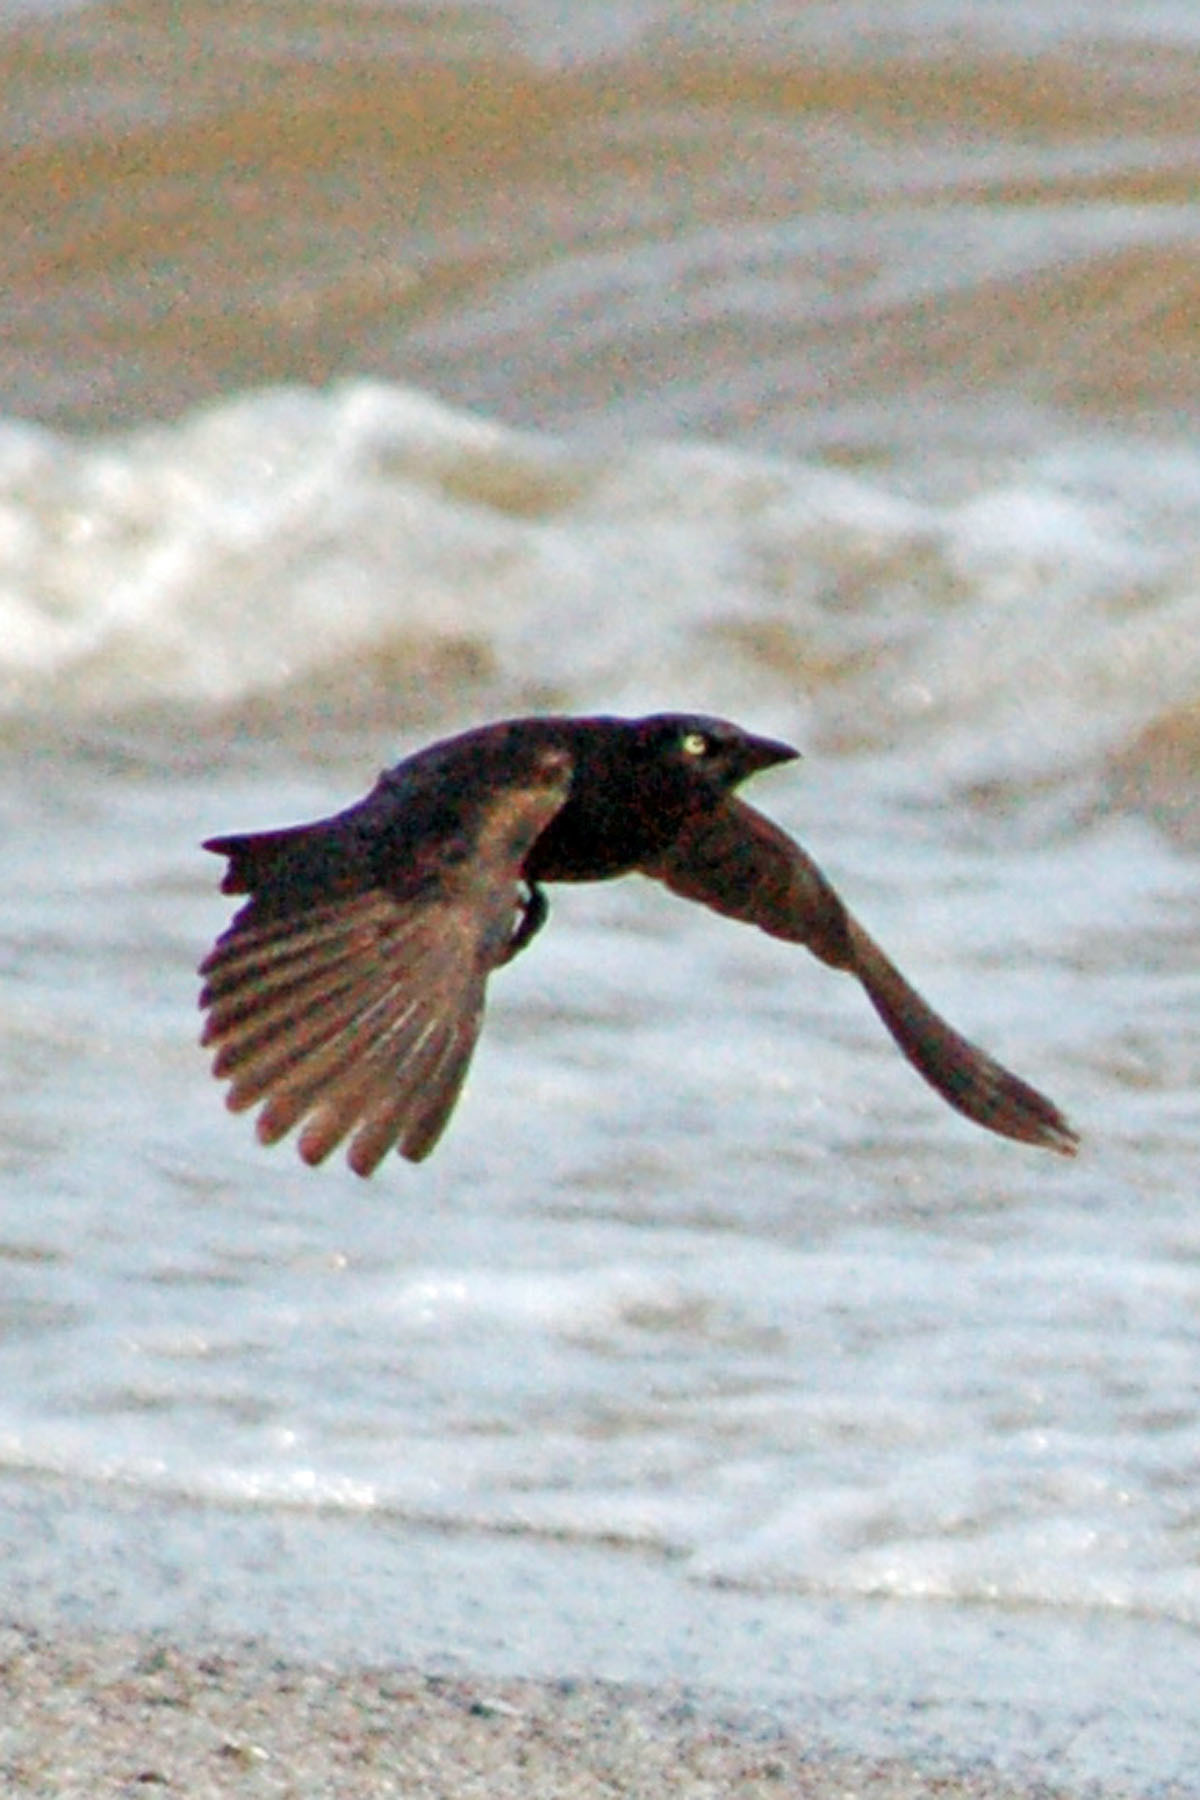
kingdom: Animalia
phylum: Chordata
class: Aves
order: Passeriformes
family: Icteridae
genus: Quiscalus
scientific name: Quiscalus quiscula
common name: Common grackle
